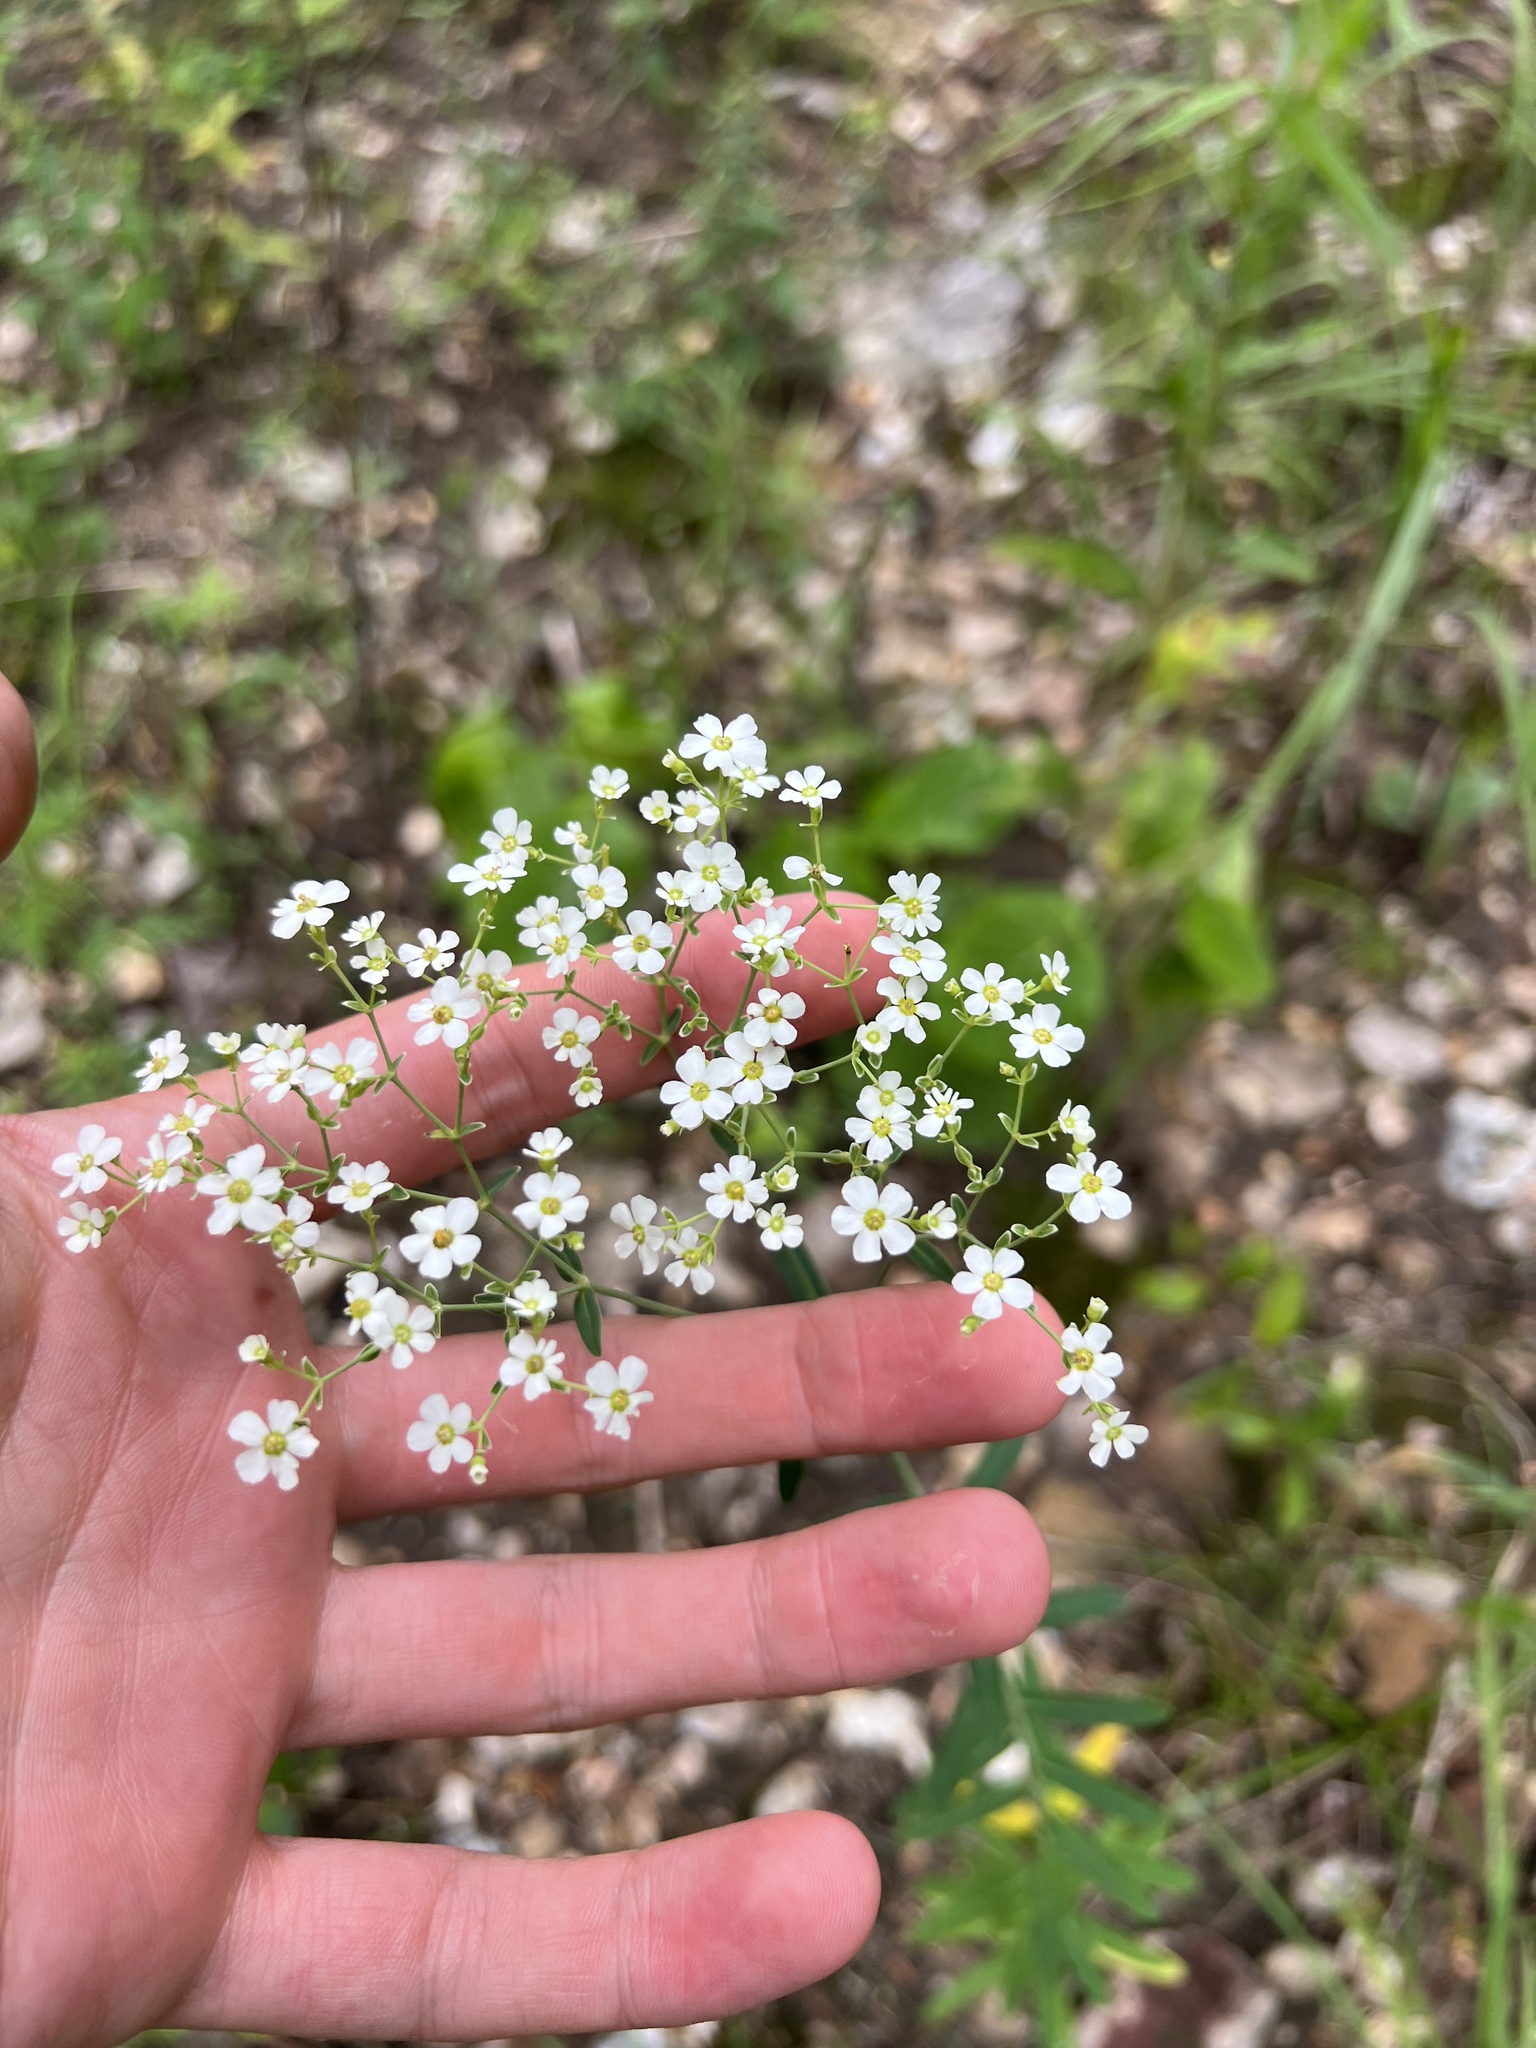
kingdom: Plantae
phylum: Tracheophyta
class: Magnoliopsida
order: Malpighiales
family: Euphorbiaceae
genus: Euphorbia
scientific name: Euphorbia corollata
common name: Flowering spurge
